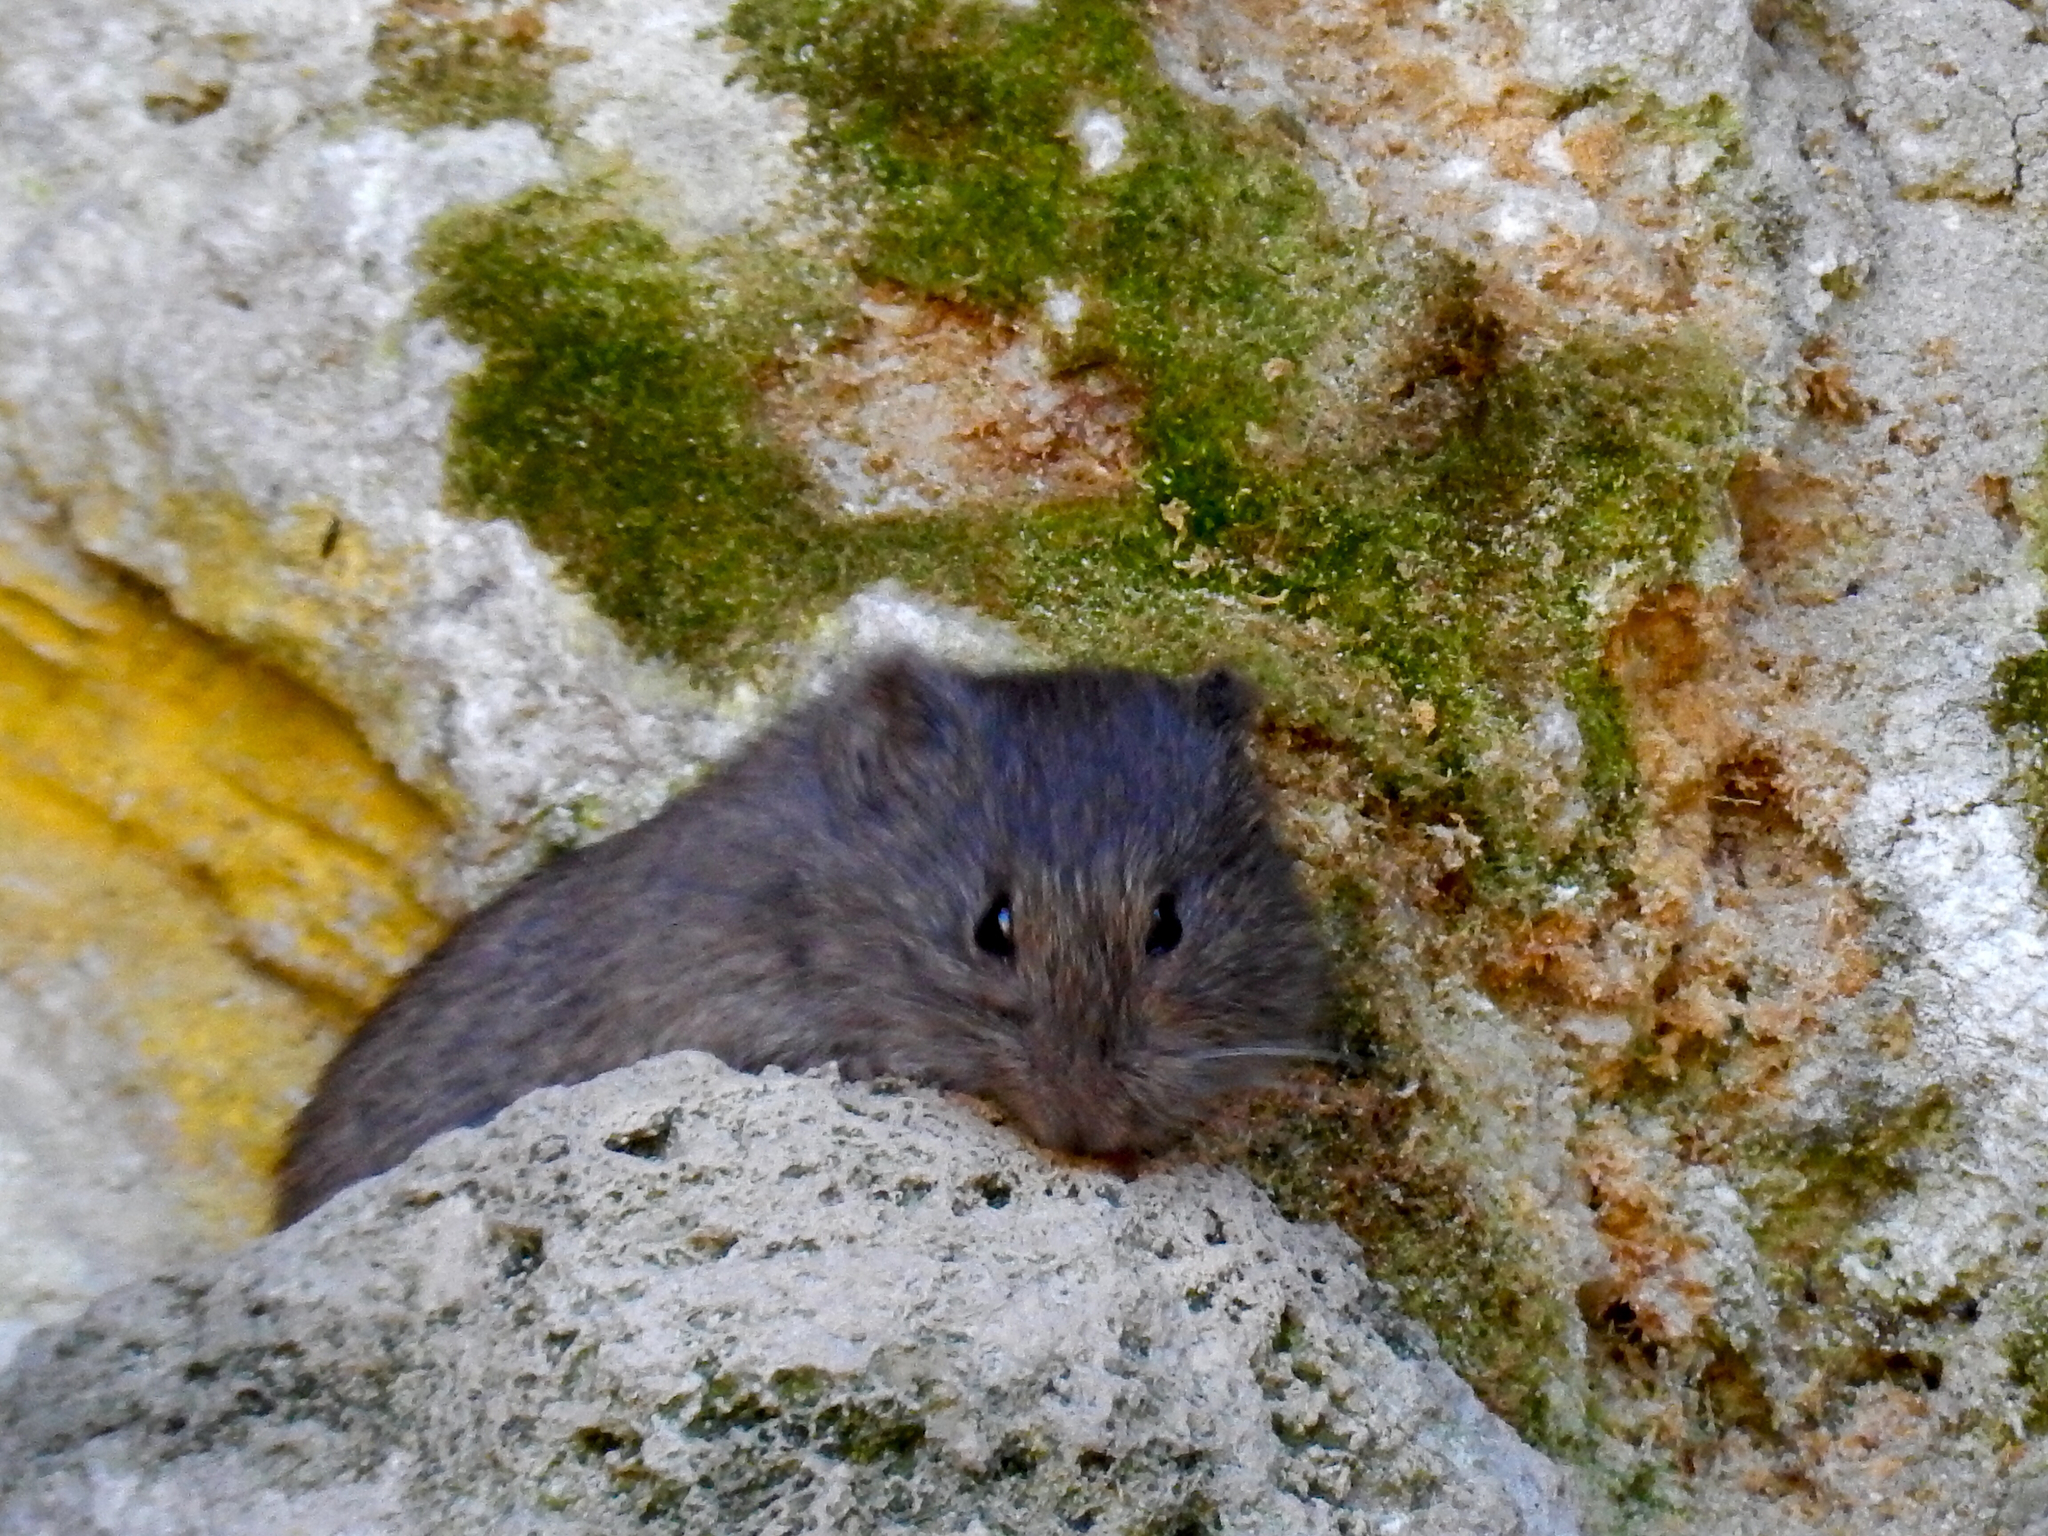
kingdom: Animalia
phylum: Chordata
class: Mammalia
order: Rodentia
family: Cricetidae
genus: Microtus
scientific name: Microtus longicaudus
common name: Long-tailed vole
